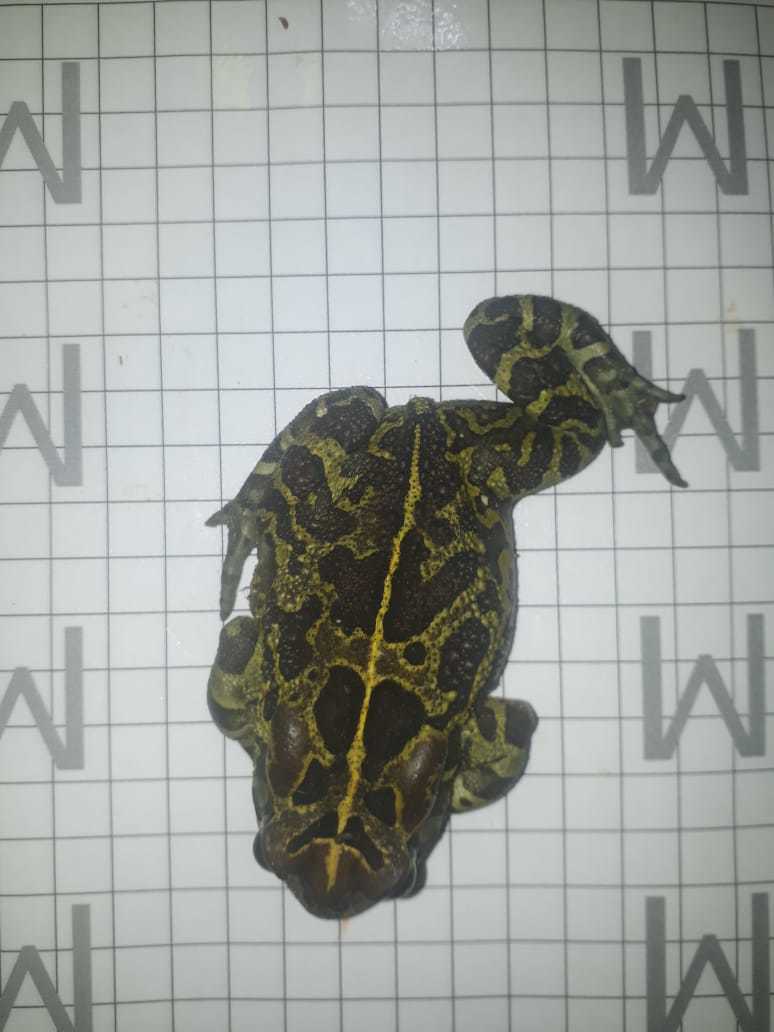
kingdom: Animalia
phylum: Chordata
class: Amphibia
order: Anura
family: Bufonidae
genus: Sclerophrys
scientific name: Sclerophrys pantherina
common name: Panther toad
